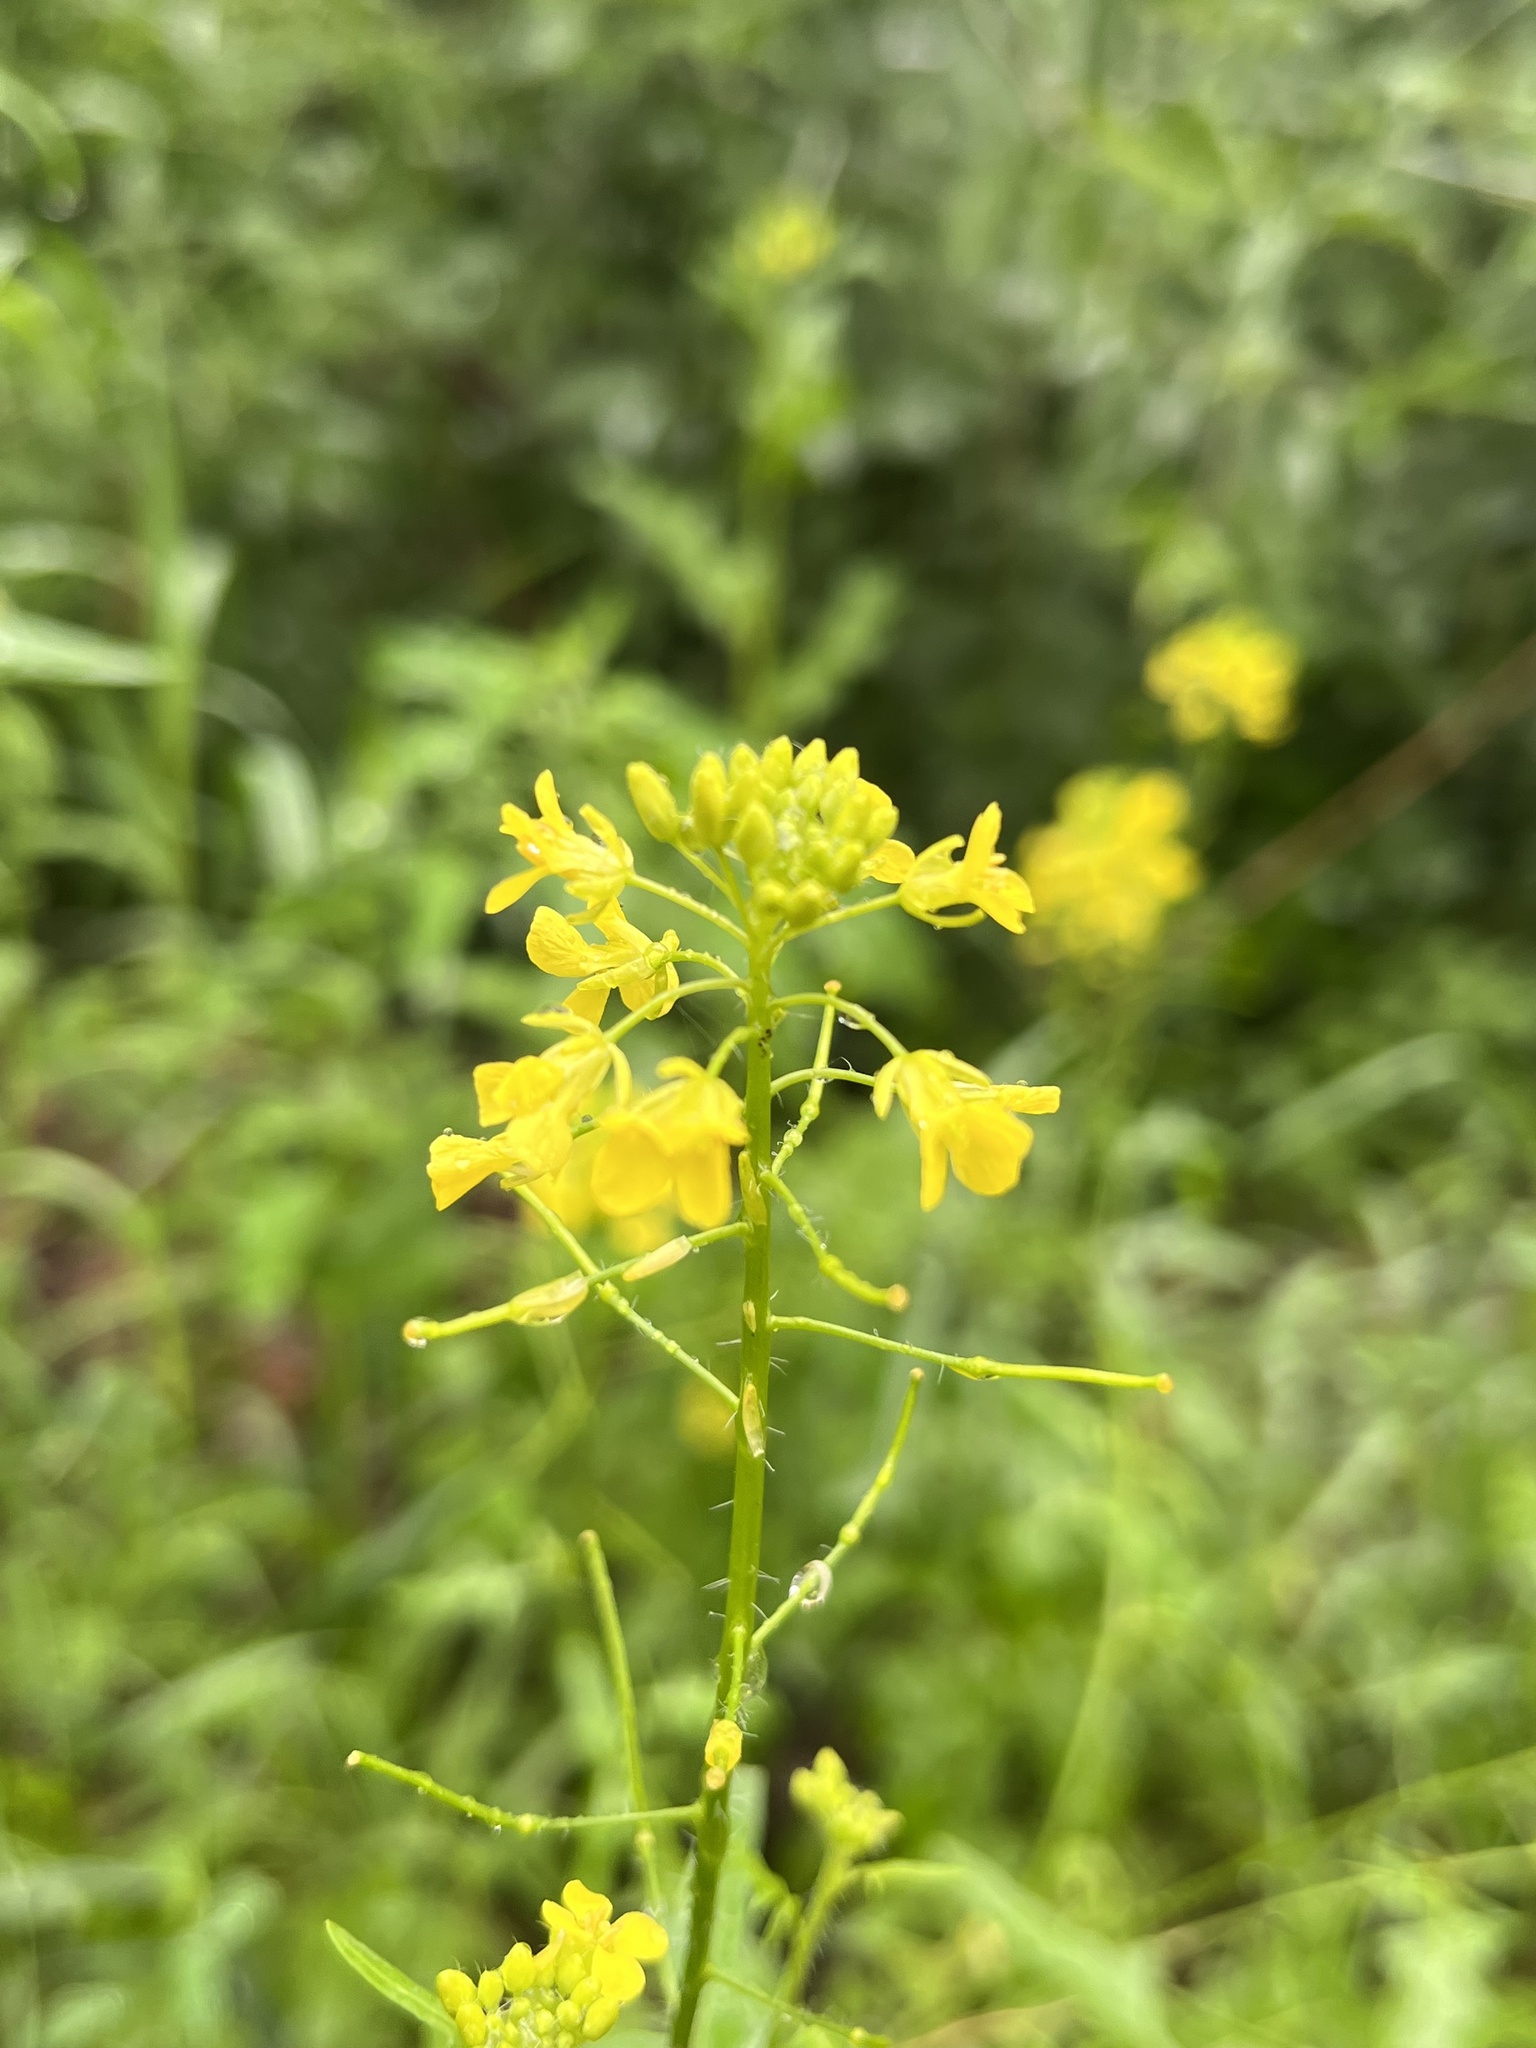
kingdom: Plantae
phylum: Tracheophyta
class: Magnoliopsida
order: Brassicales
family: Brassicaceae
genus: Sisymbrium
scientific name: Sisymbrium loeselii
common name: False london-rocket
